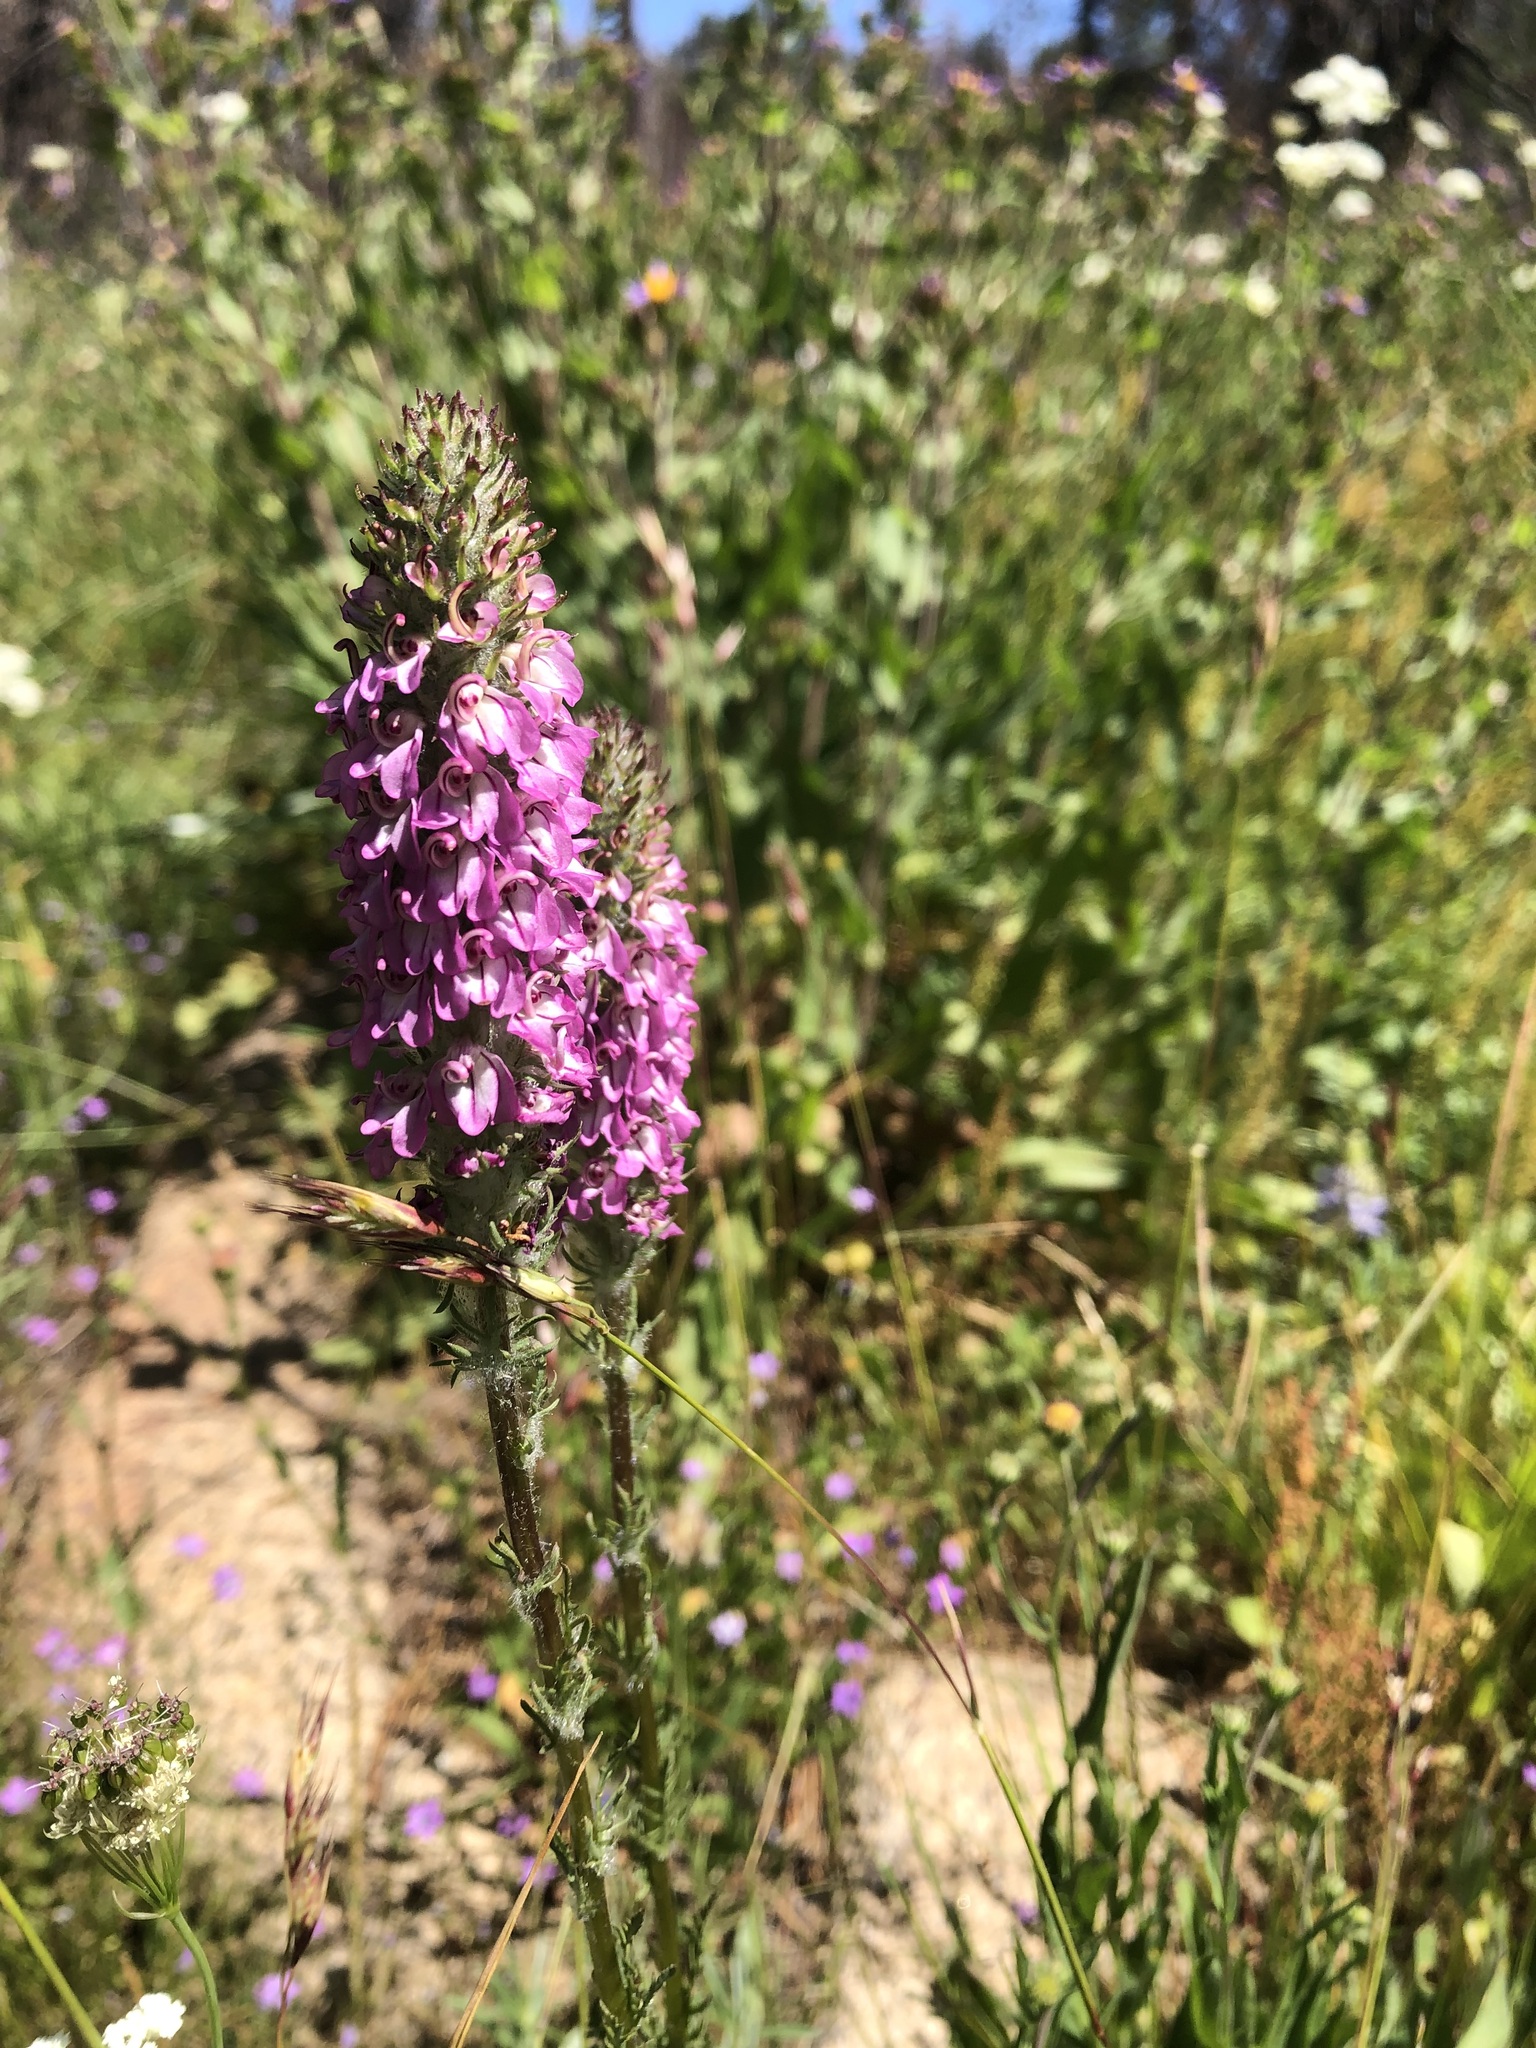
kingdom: Plantae
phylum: Tracheophyta
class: Magnoliopsida
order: Lamiales
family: Orobanchaceae
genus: Pedicularis
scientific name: Pedicularis attollens
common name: Slender pedicularis
